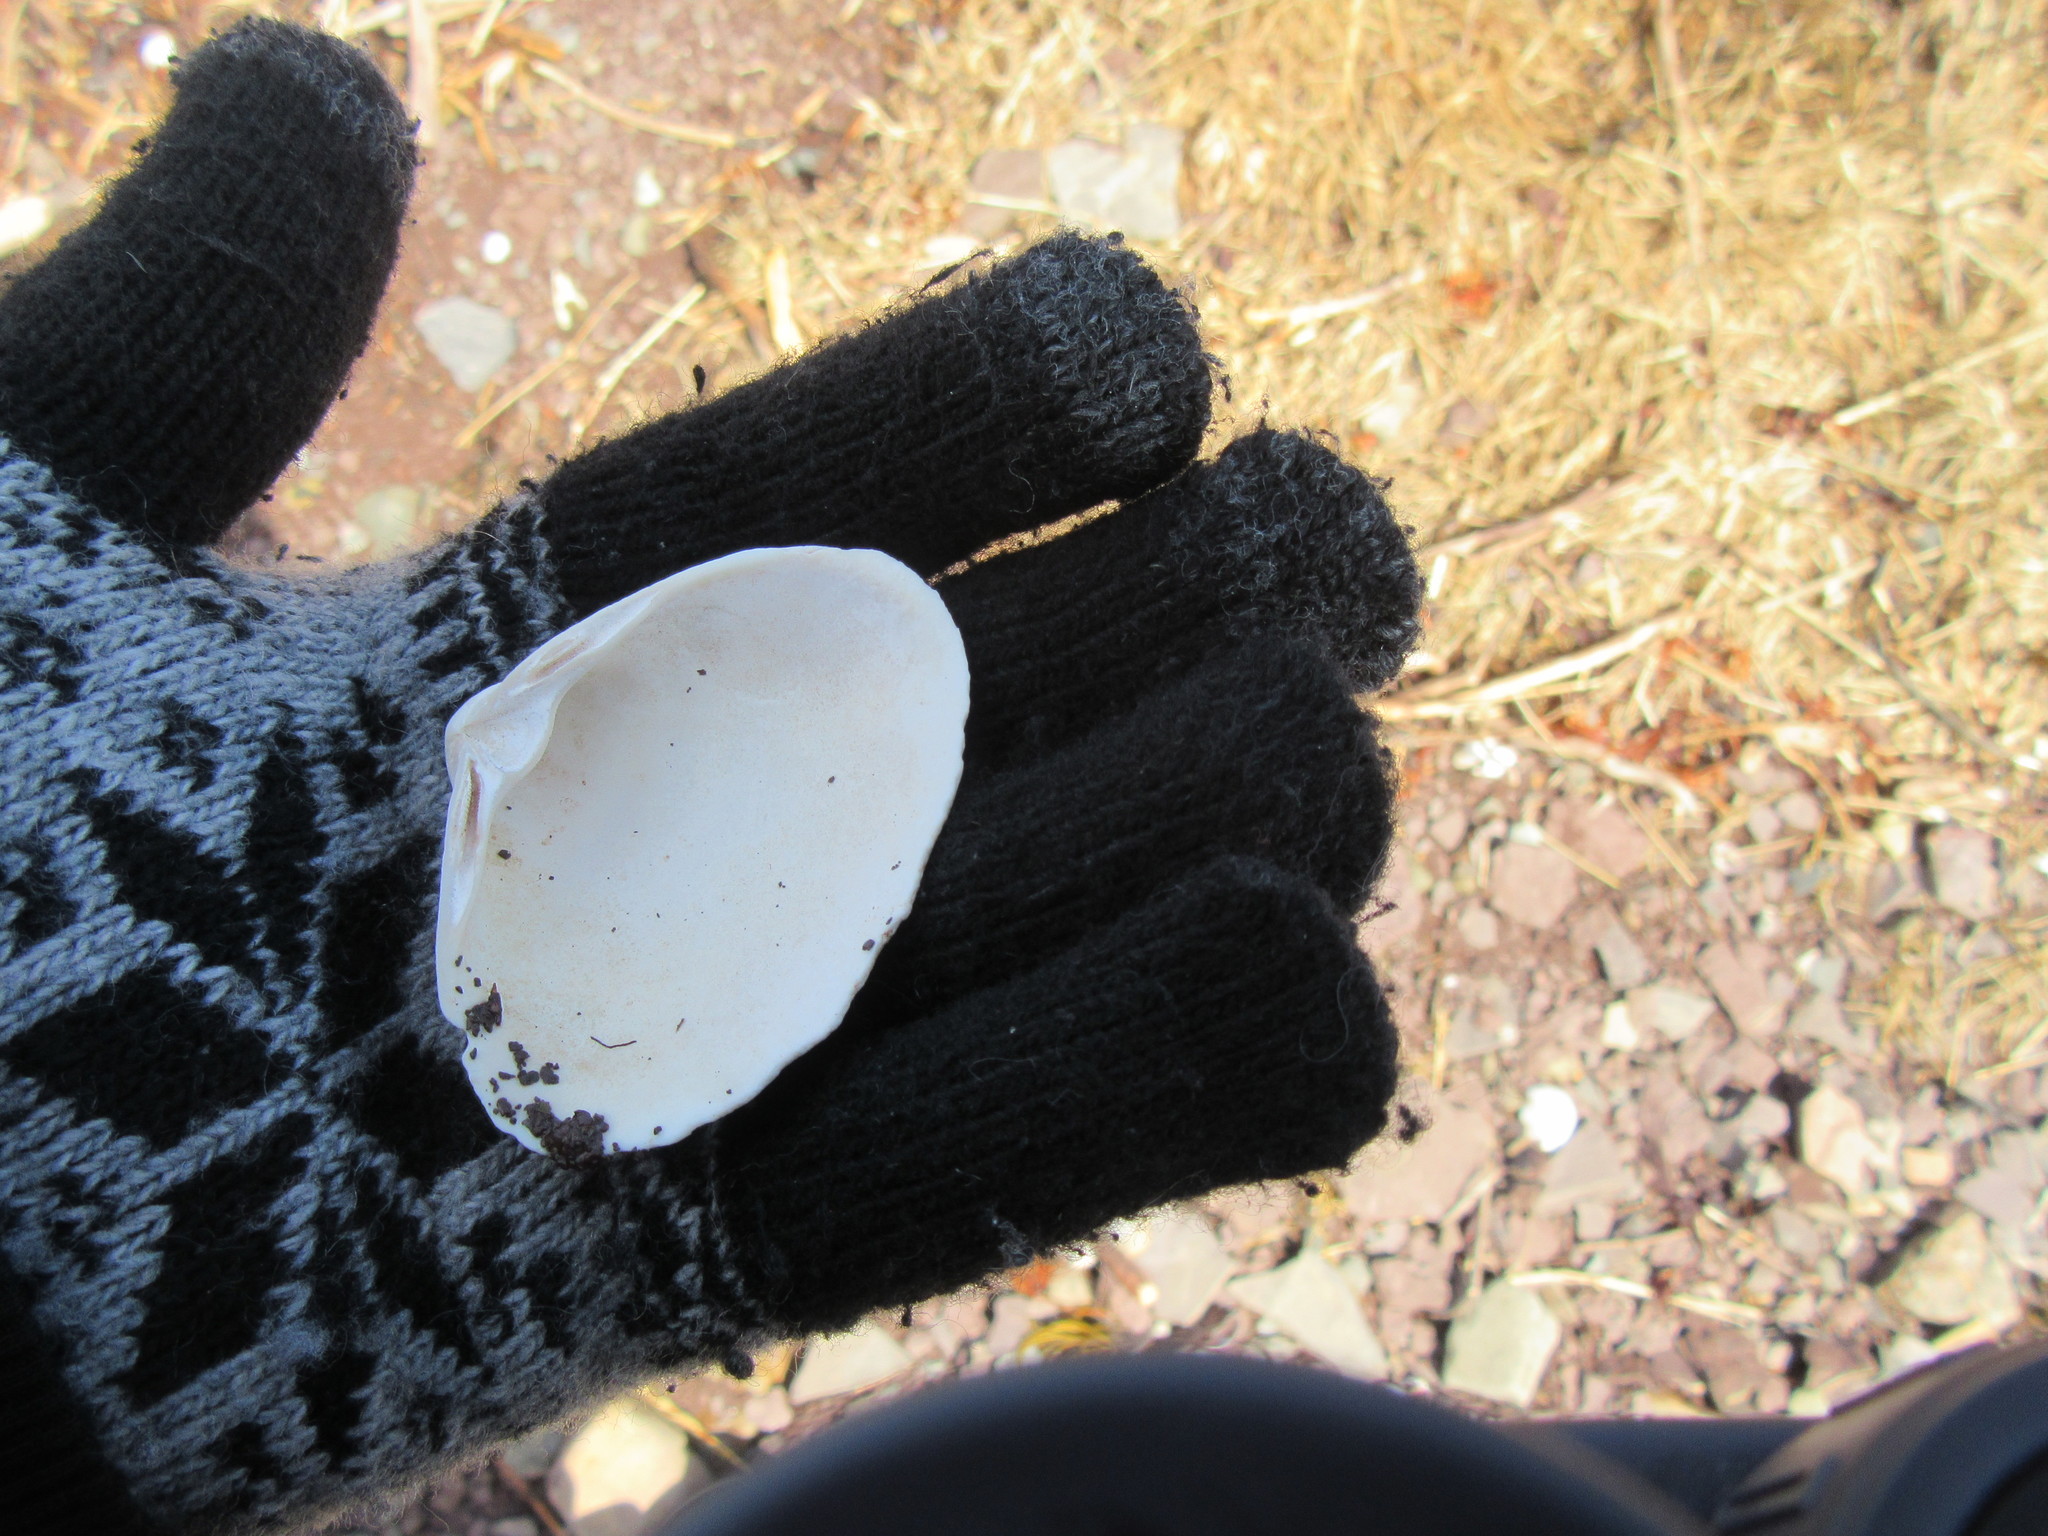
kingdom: Animalia
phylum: Mollusca
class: Bivalvia
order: Venerida
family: Mactridae
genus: Spisula
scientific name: Spisula solidissima
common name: Atlantic surf clam
